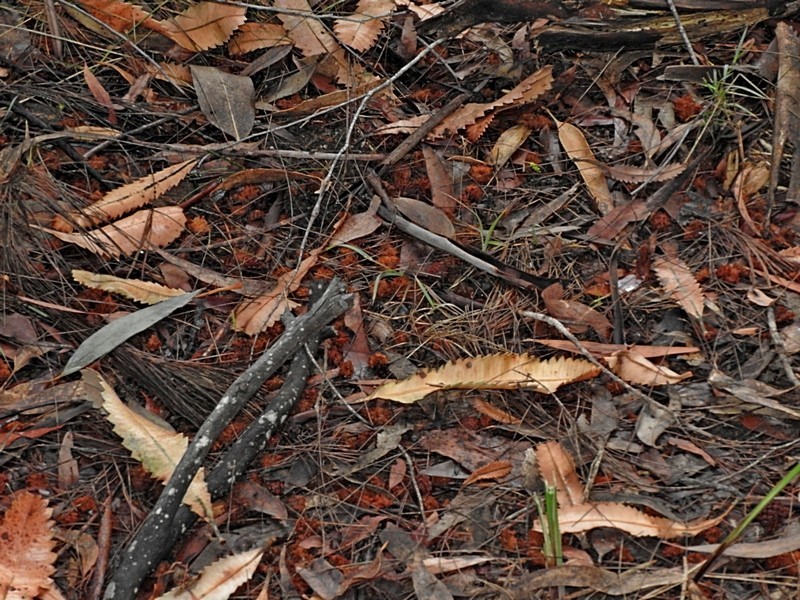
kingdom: Animalia
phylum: Chordata
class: Aves
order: Psittaciformes
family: Psittacidae
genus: Calyptorhynchus
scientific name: Calyptorhynchus lathami
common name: Glossy black cockatoo
